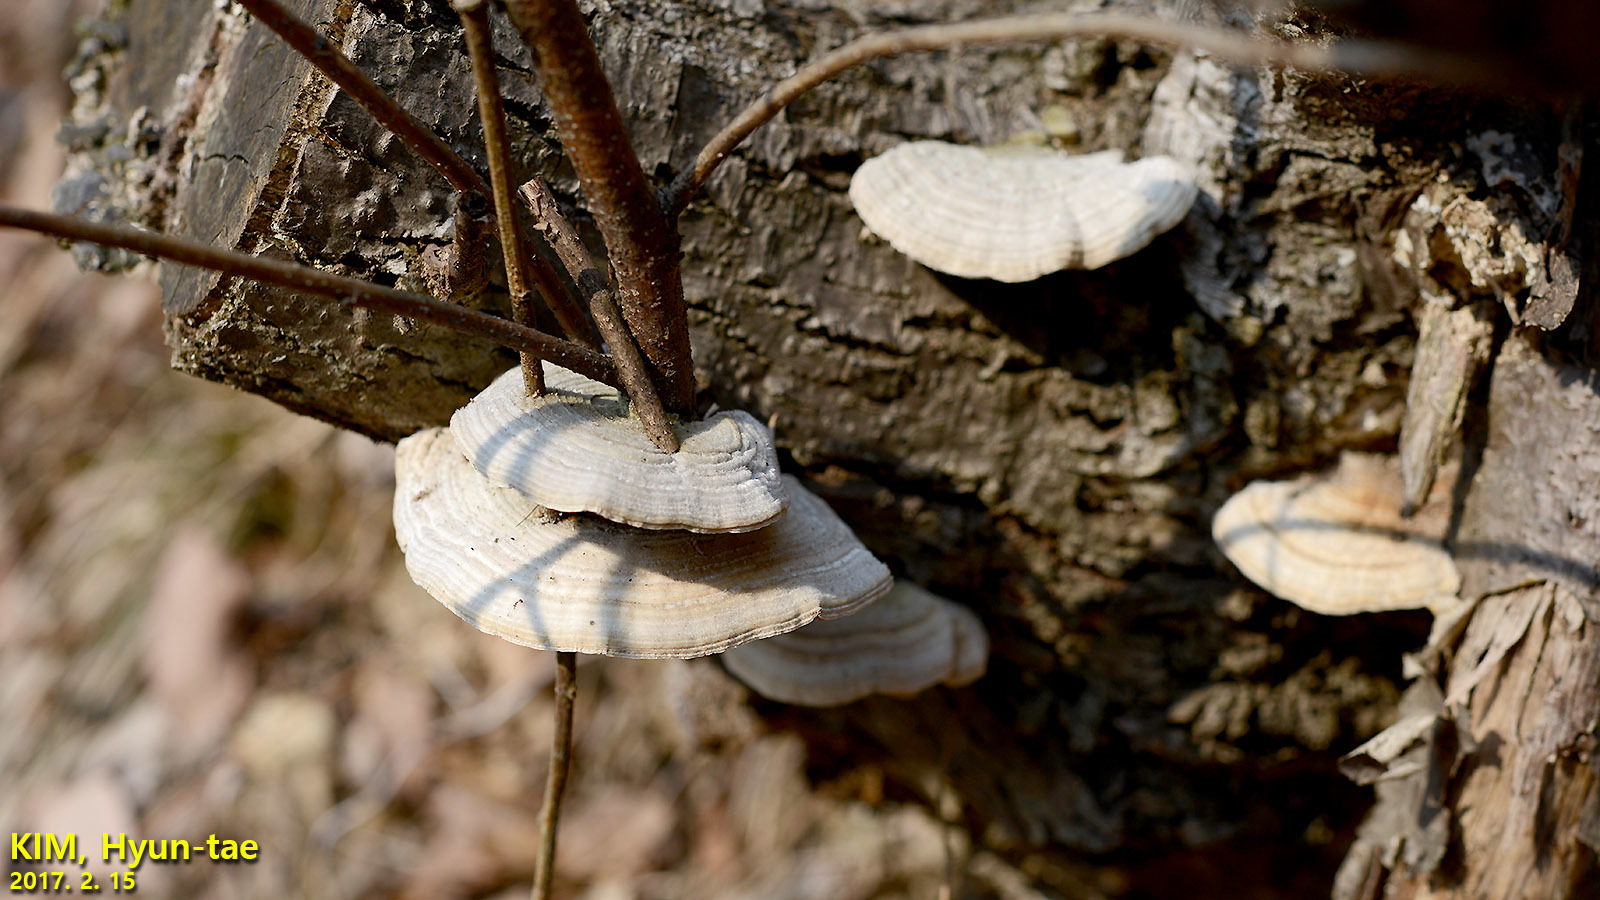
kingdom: Fungi
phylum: Basidiomycota
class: Agaricomycetes
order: Polyporales
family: Polyporaceae
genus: Lenzites
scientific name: Lenzites betulinus
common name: Birch mazegill
